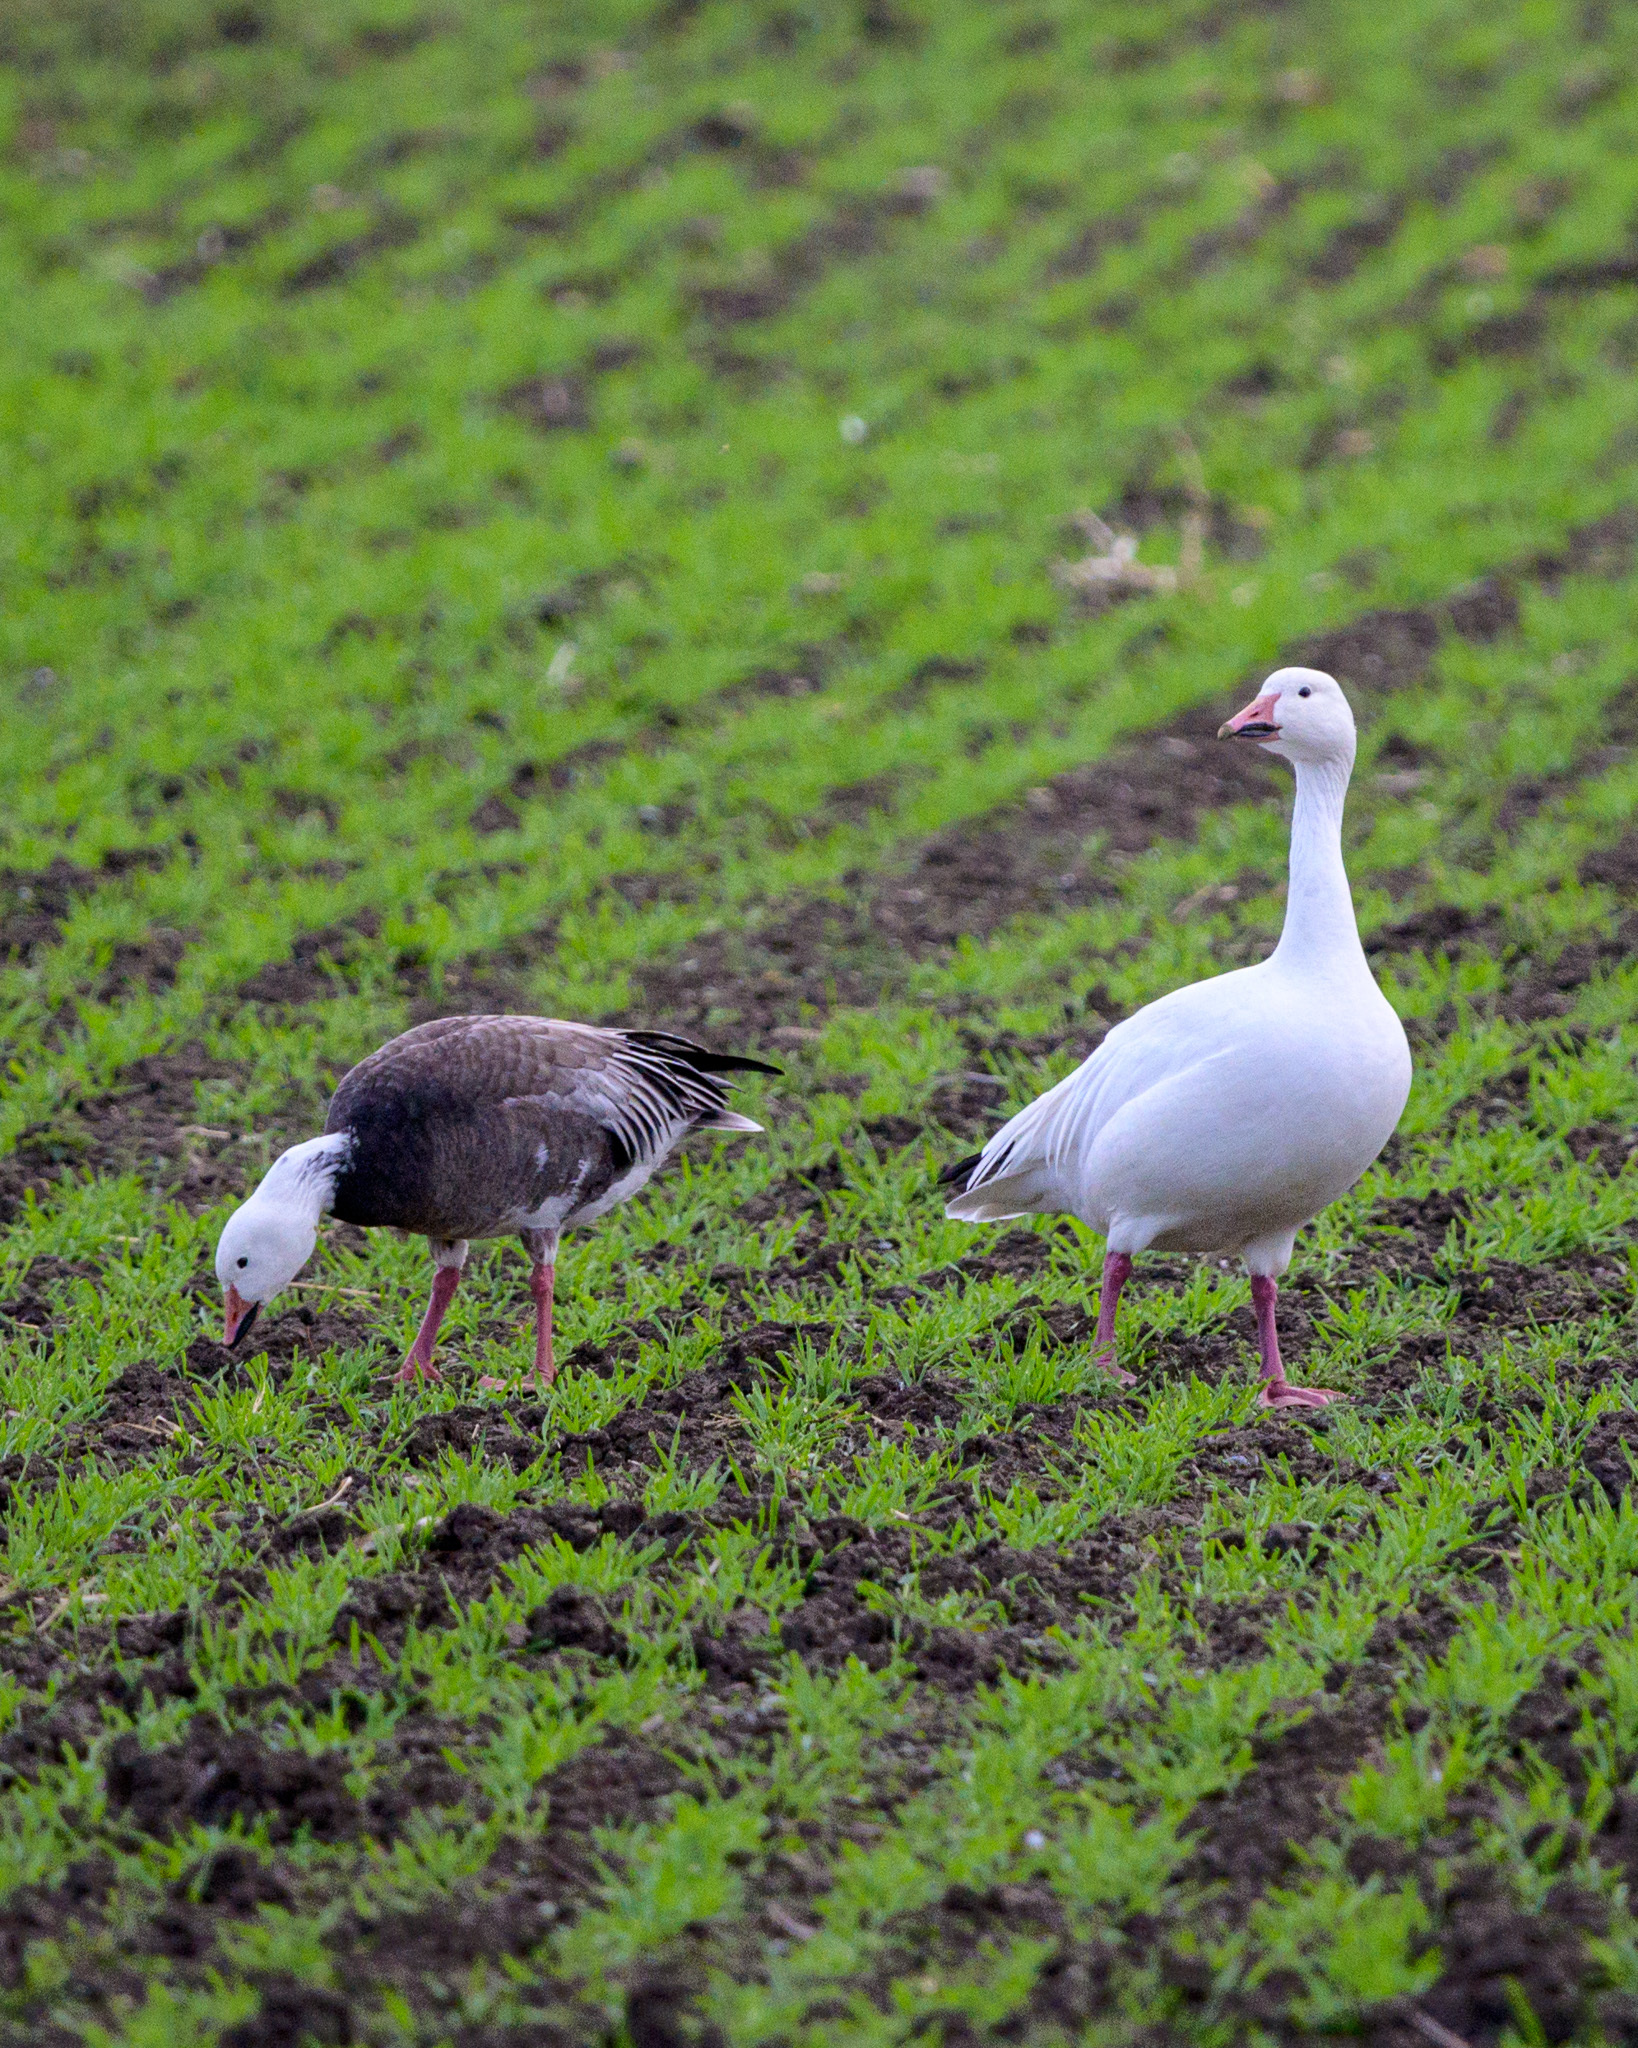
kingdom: Animalia
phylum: Chordata
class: Aves
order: Anseriformes
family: Anatidae
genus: Anser
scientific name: Anser caerulescens
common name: Snow goose
